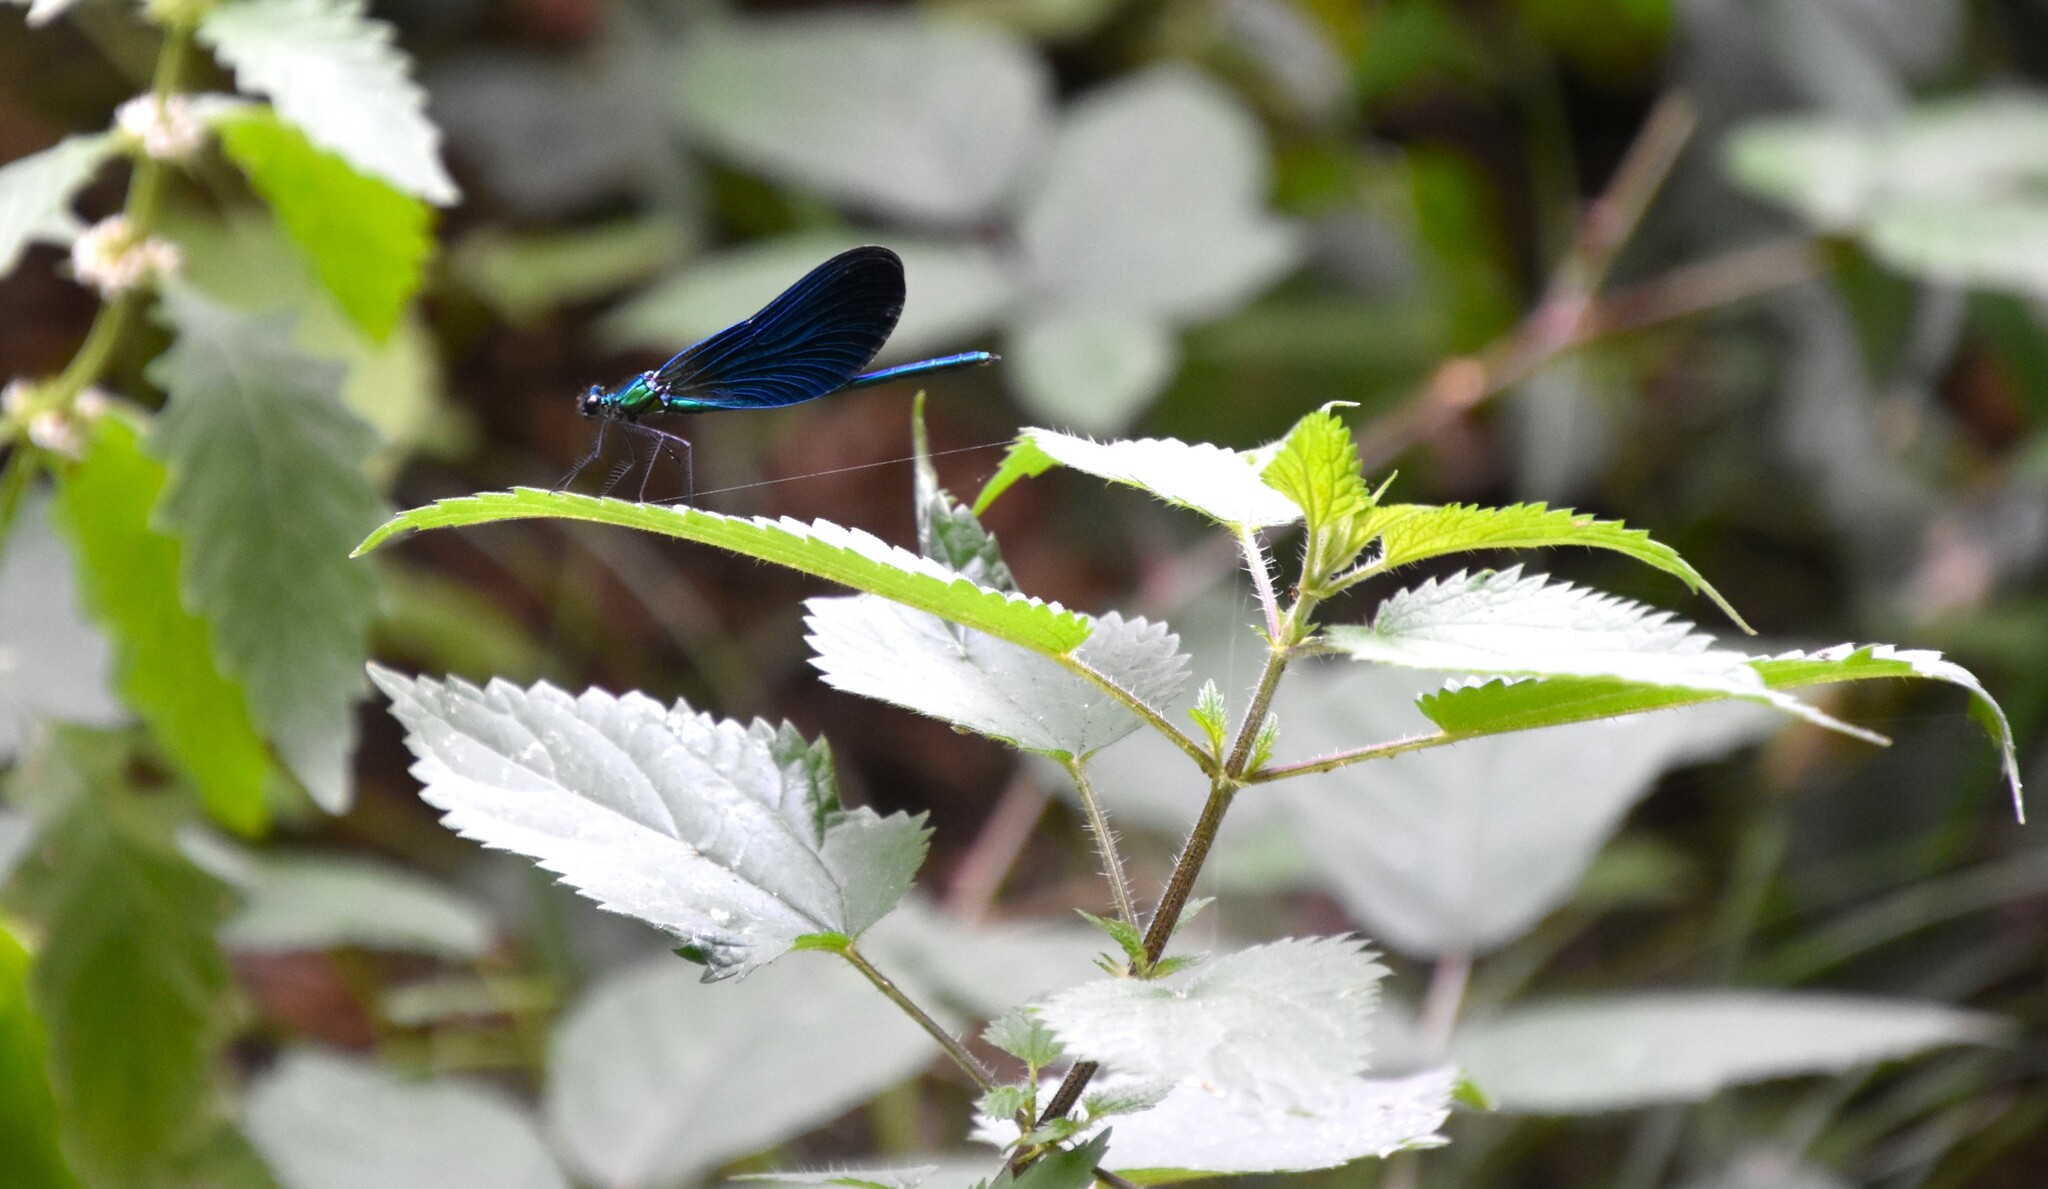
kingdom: Animalia
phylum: Arthropoda
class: Insecta
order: Odonata
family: Calopterygidae
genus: Calopteryx
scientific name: Calopteryx virgo
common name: Beautiful demoiselle
